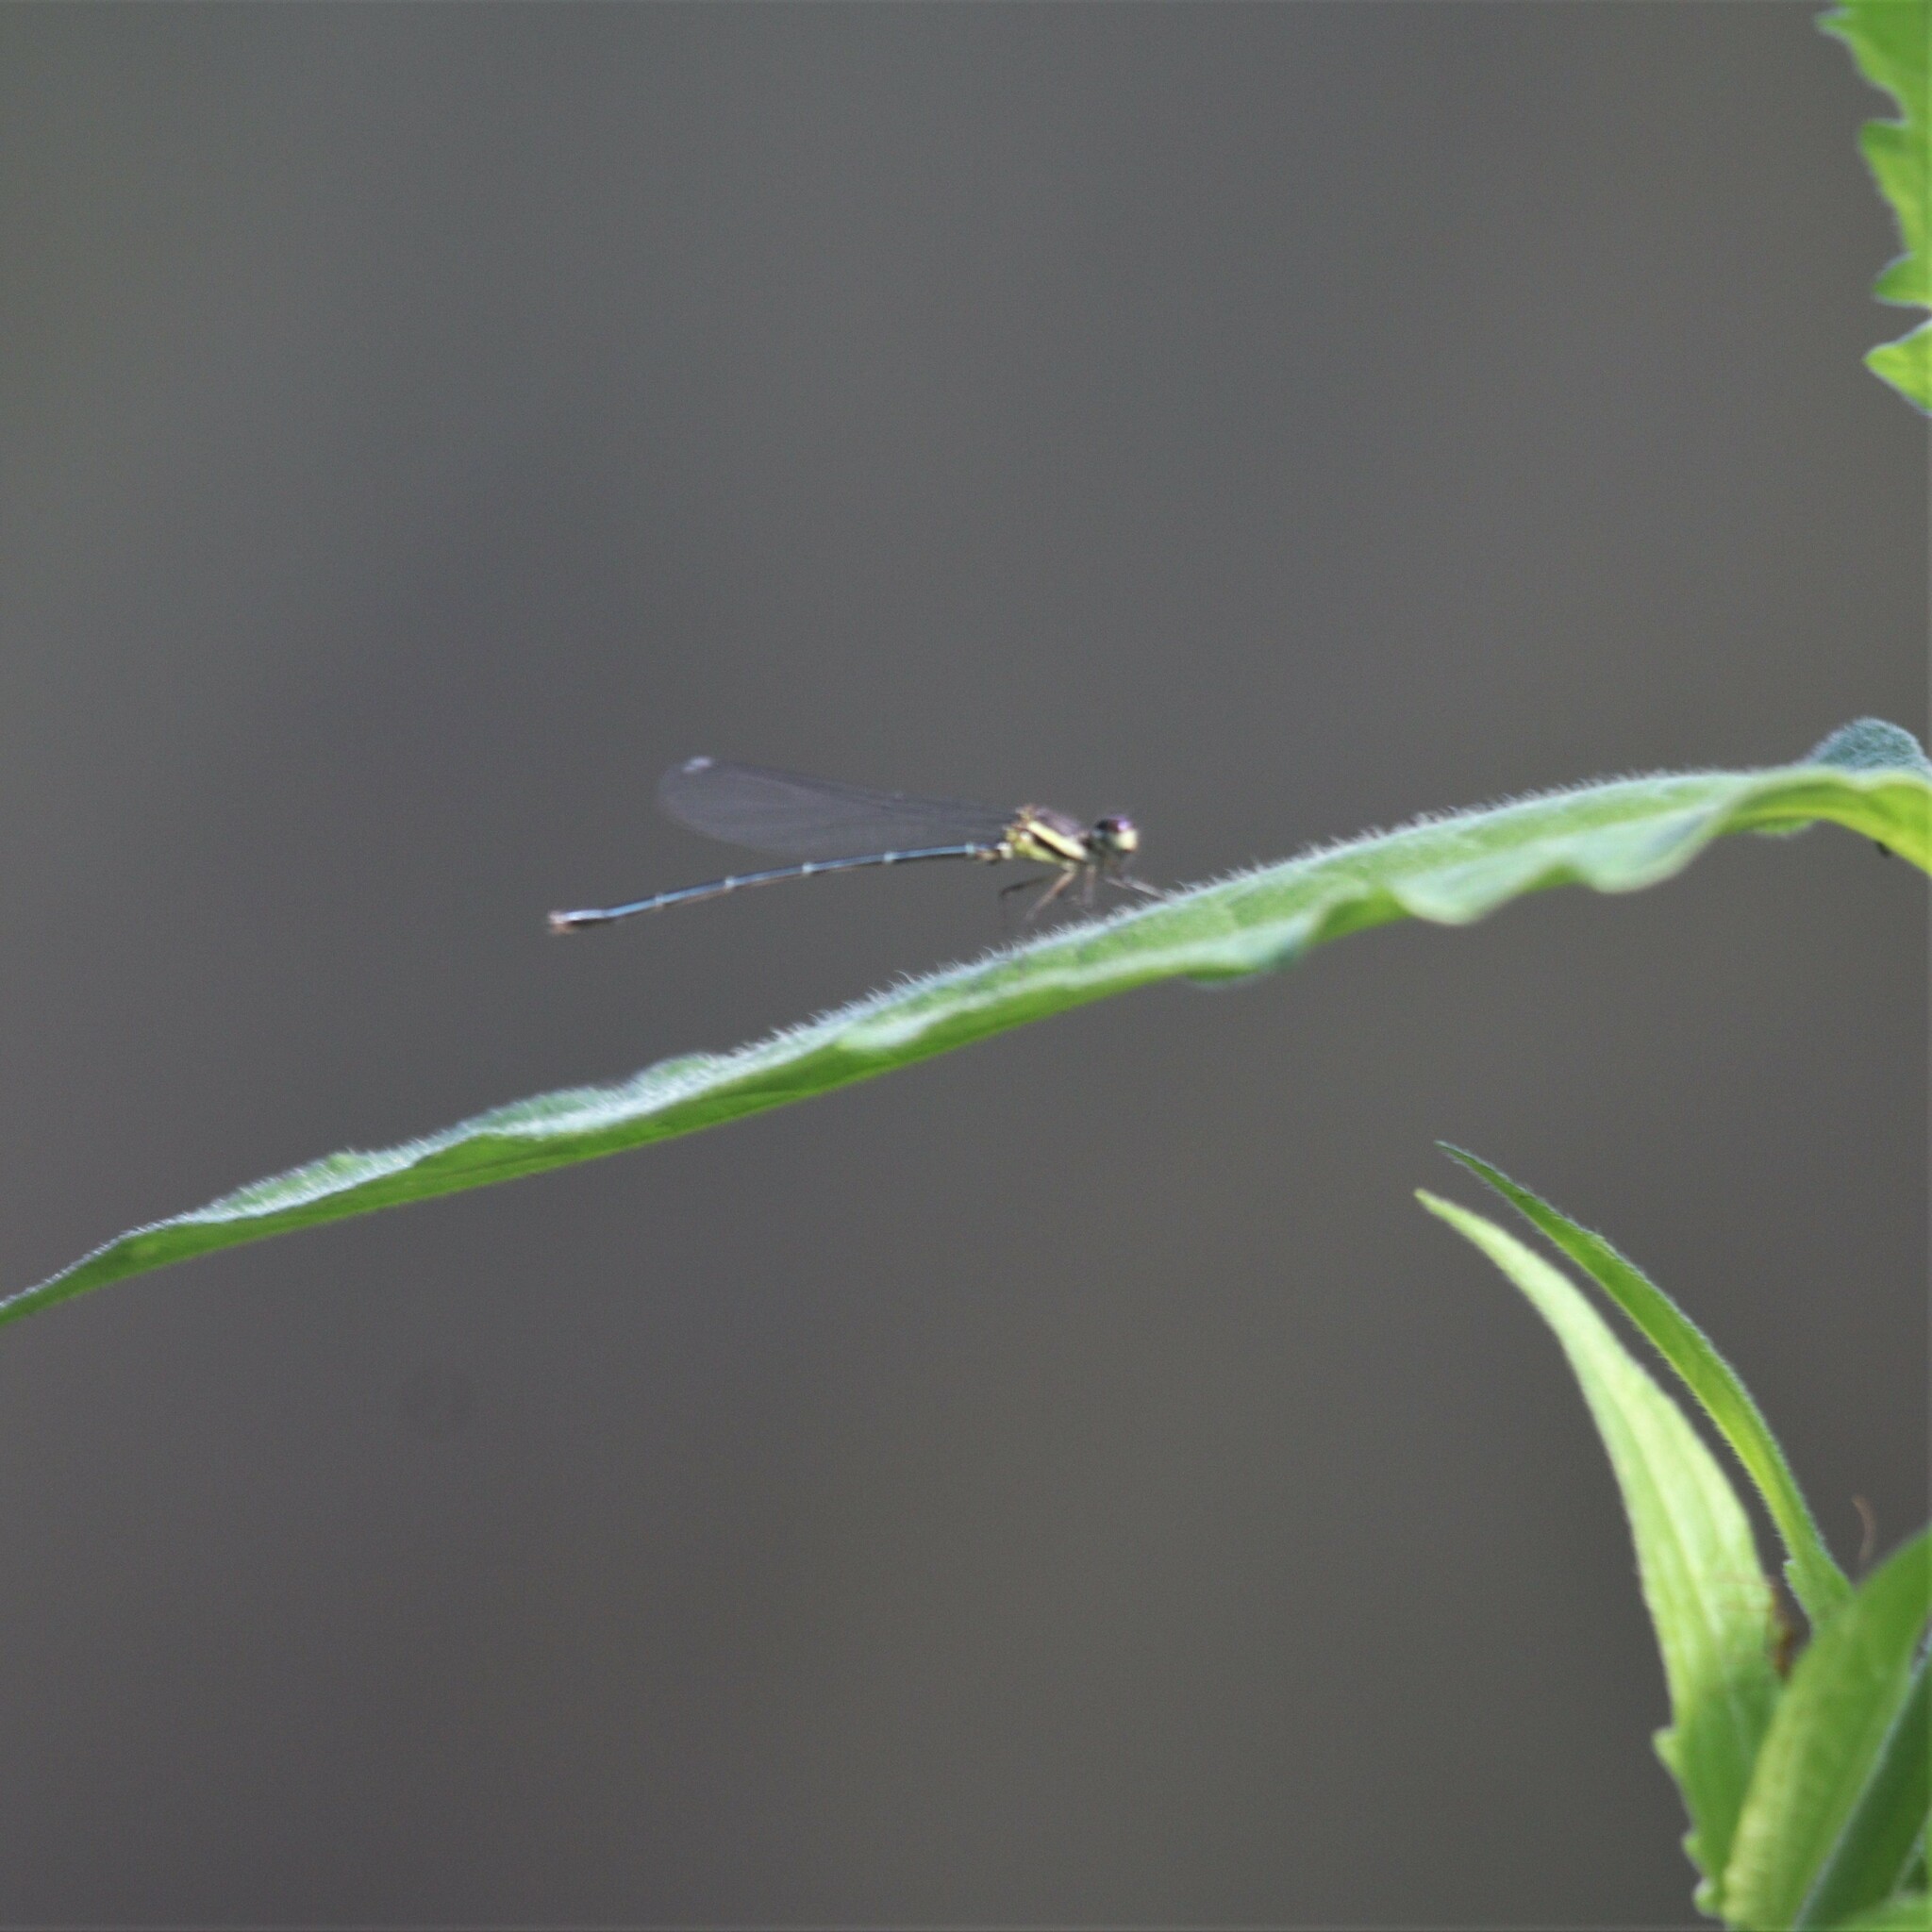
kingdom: Animalia
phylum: Arthropoda
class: Insecta
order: Odonata
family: Platycnemididae
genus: Onychargia
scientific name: Onychargia atrocyana
